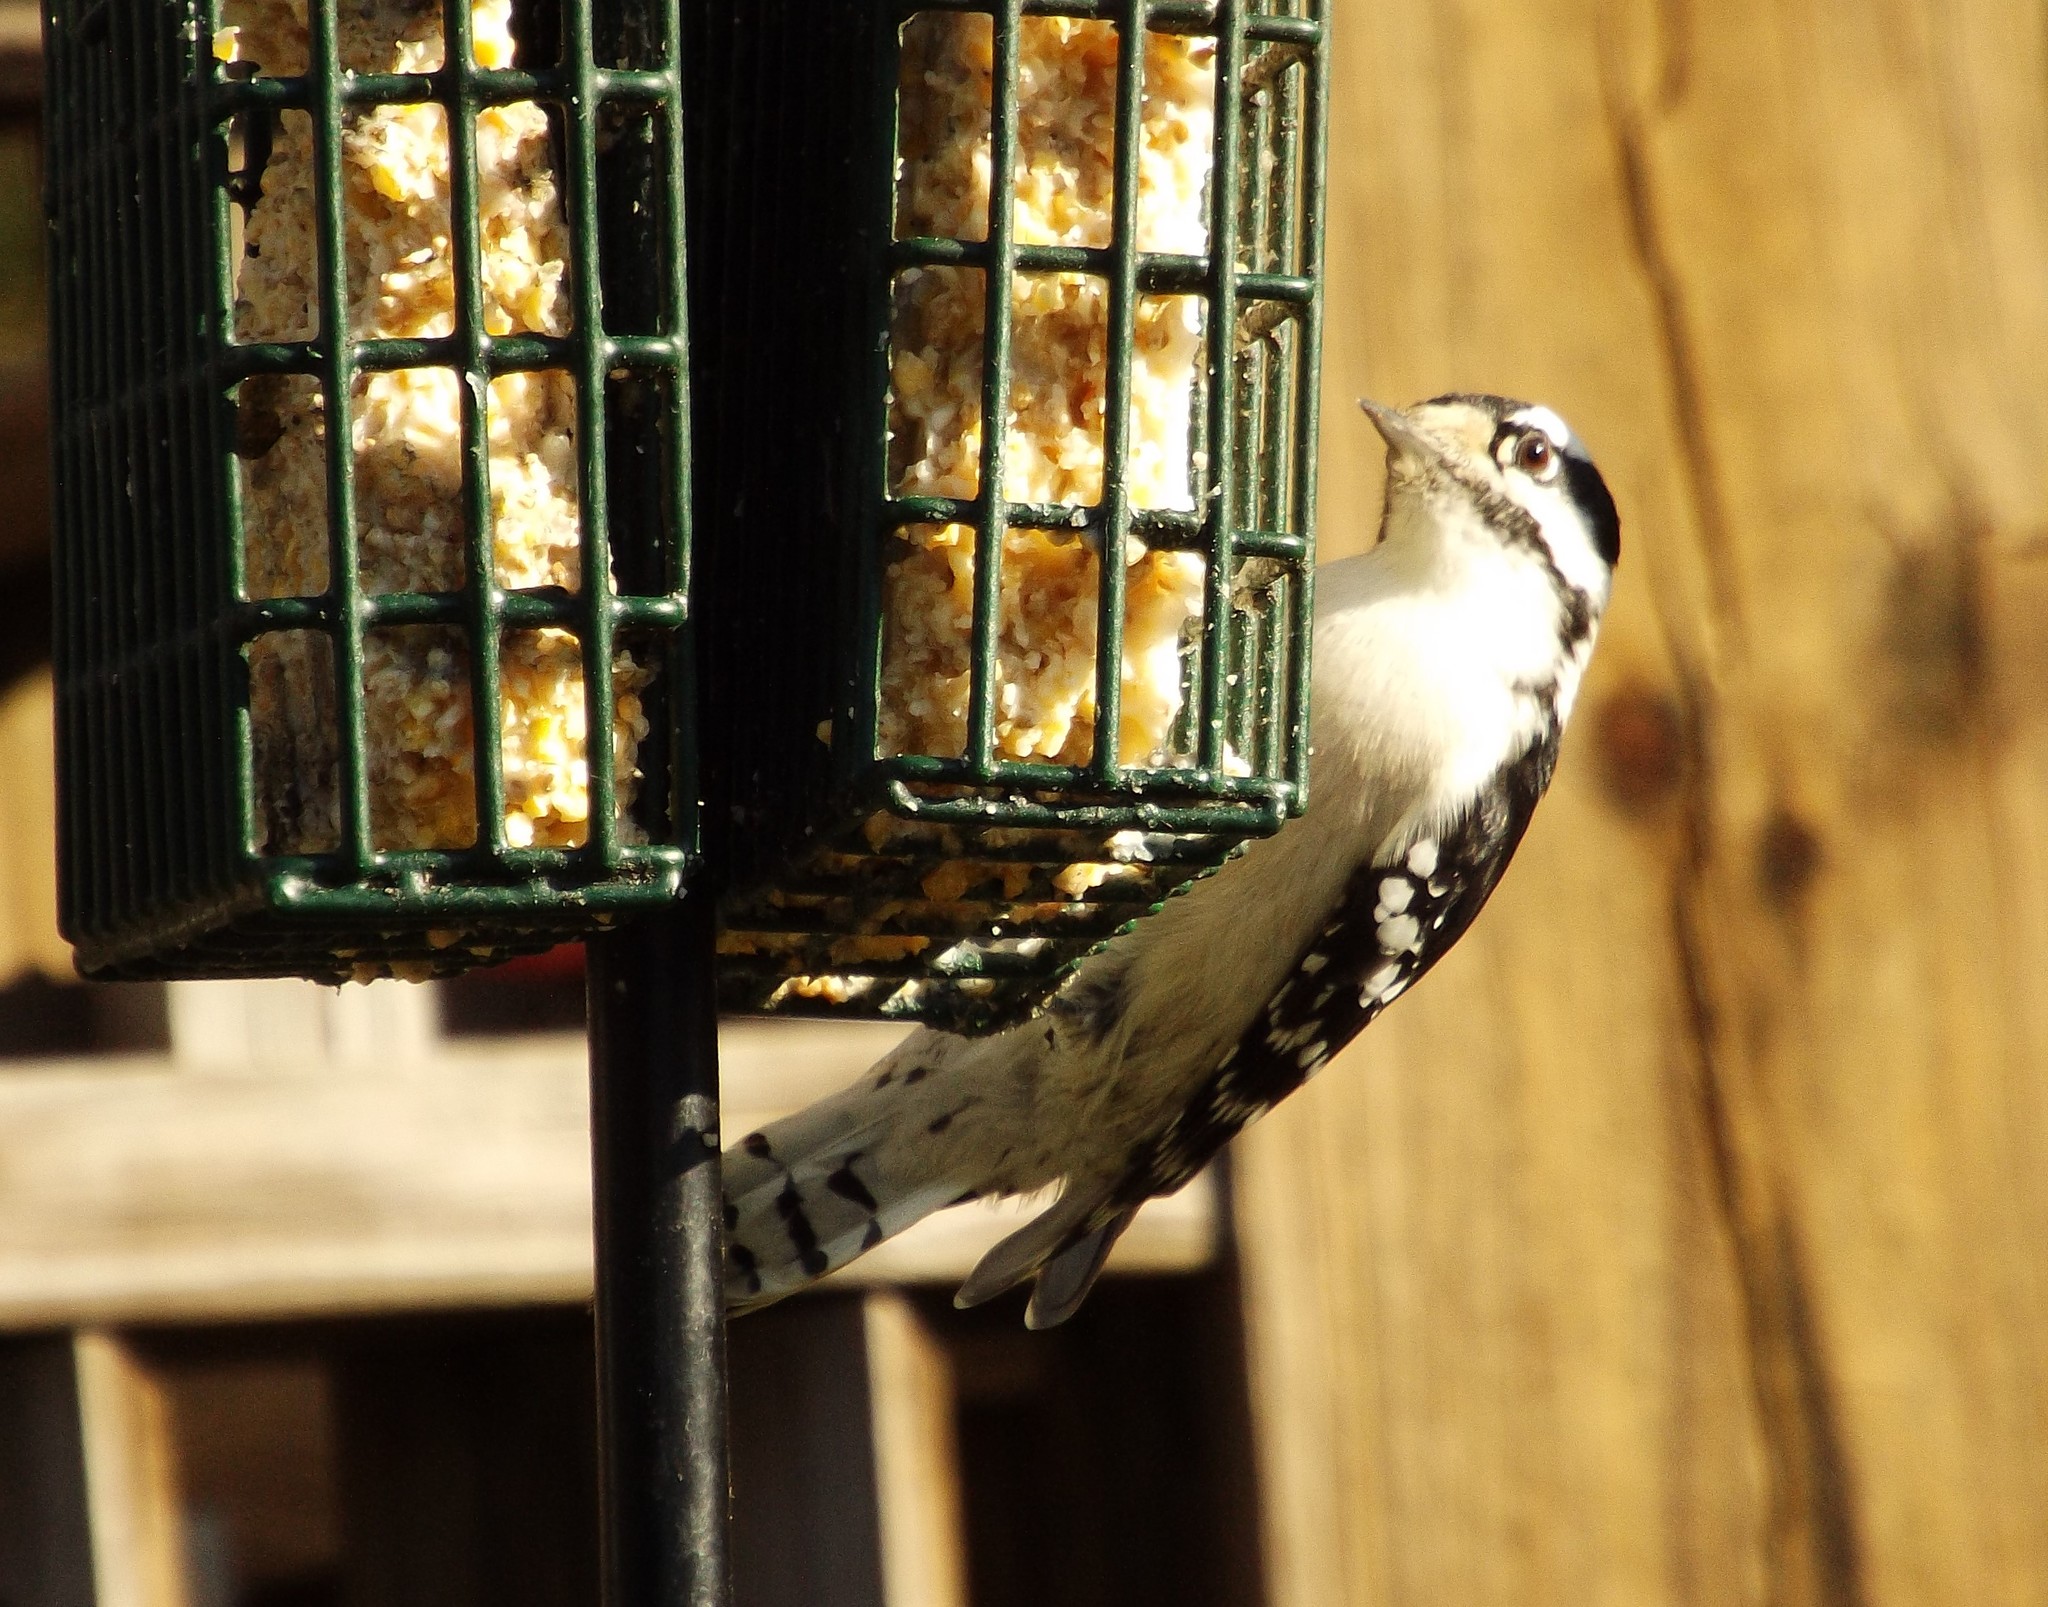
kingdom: Animalia
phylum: Chordata
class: Aves
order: Piciformes
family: Picidae
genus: Dryobates
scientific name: Dryobates pubescens
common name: Downy woodpecker
